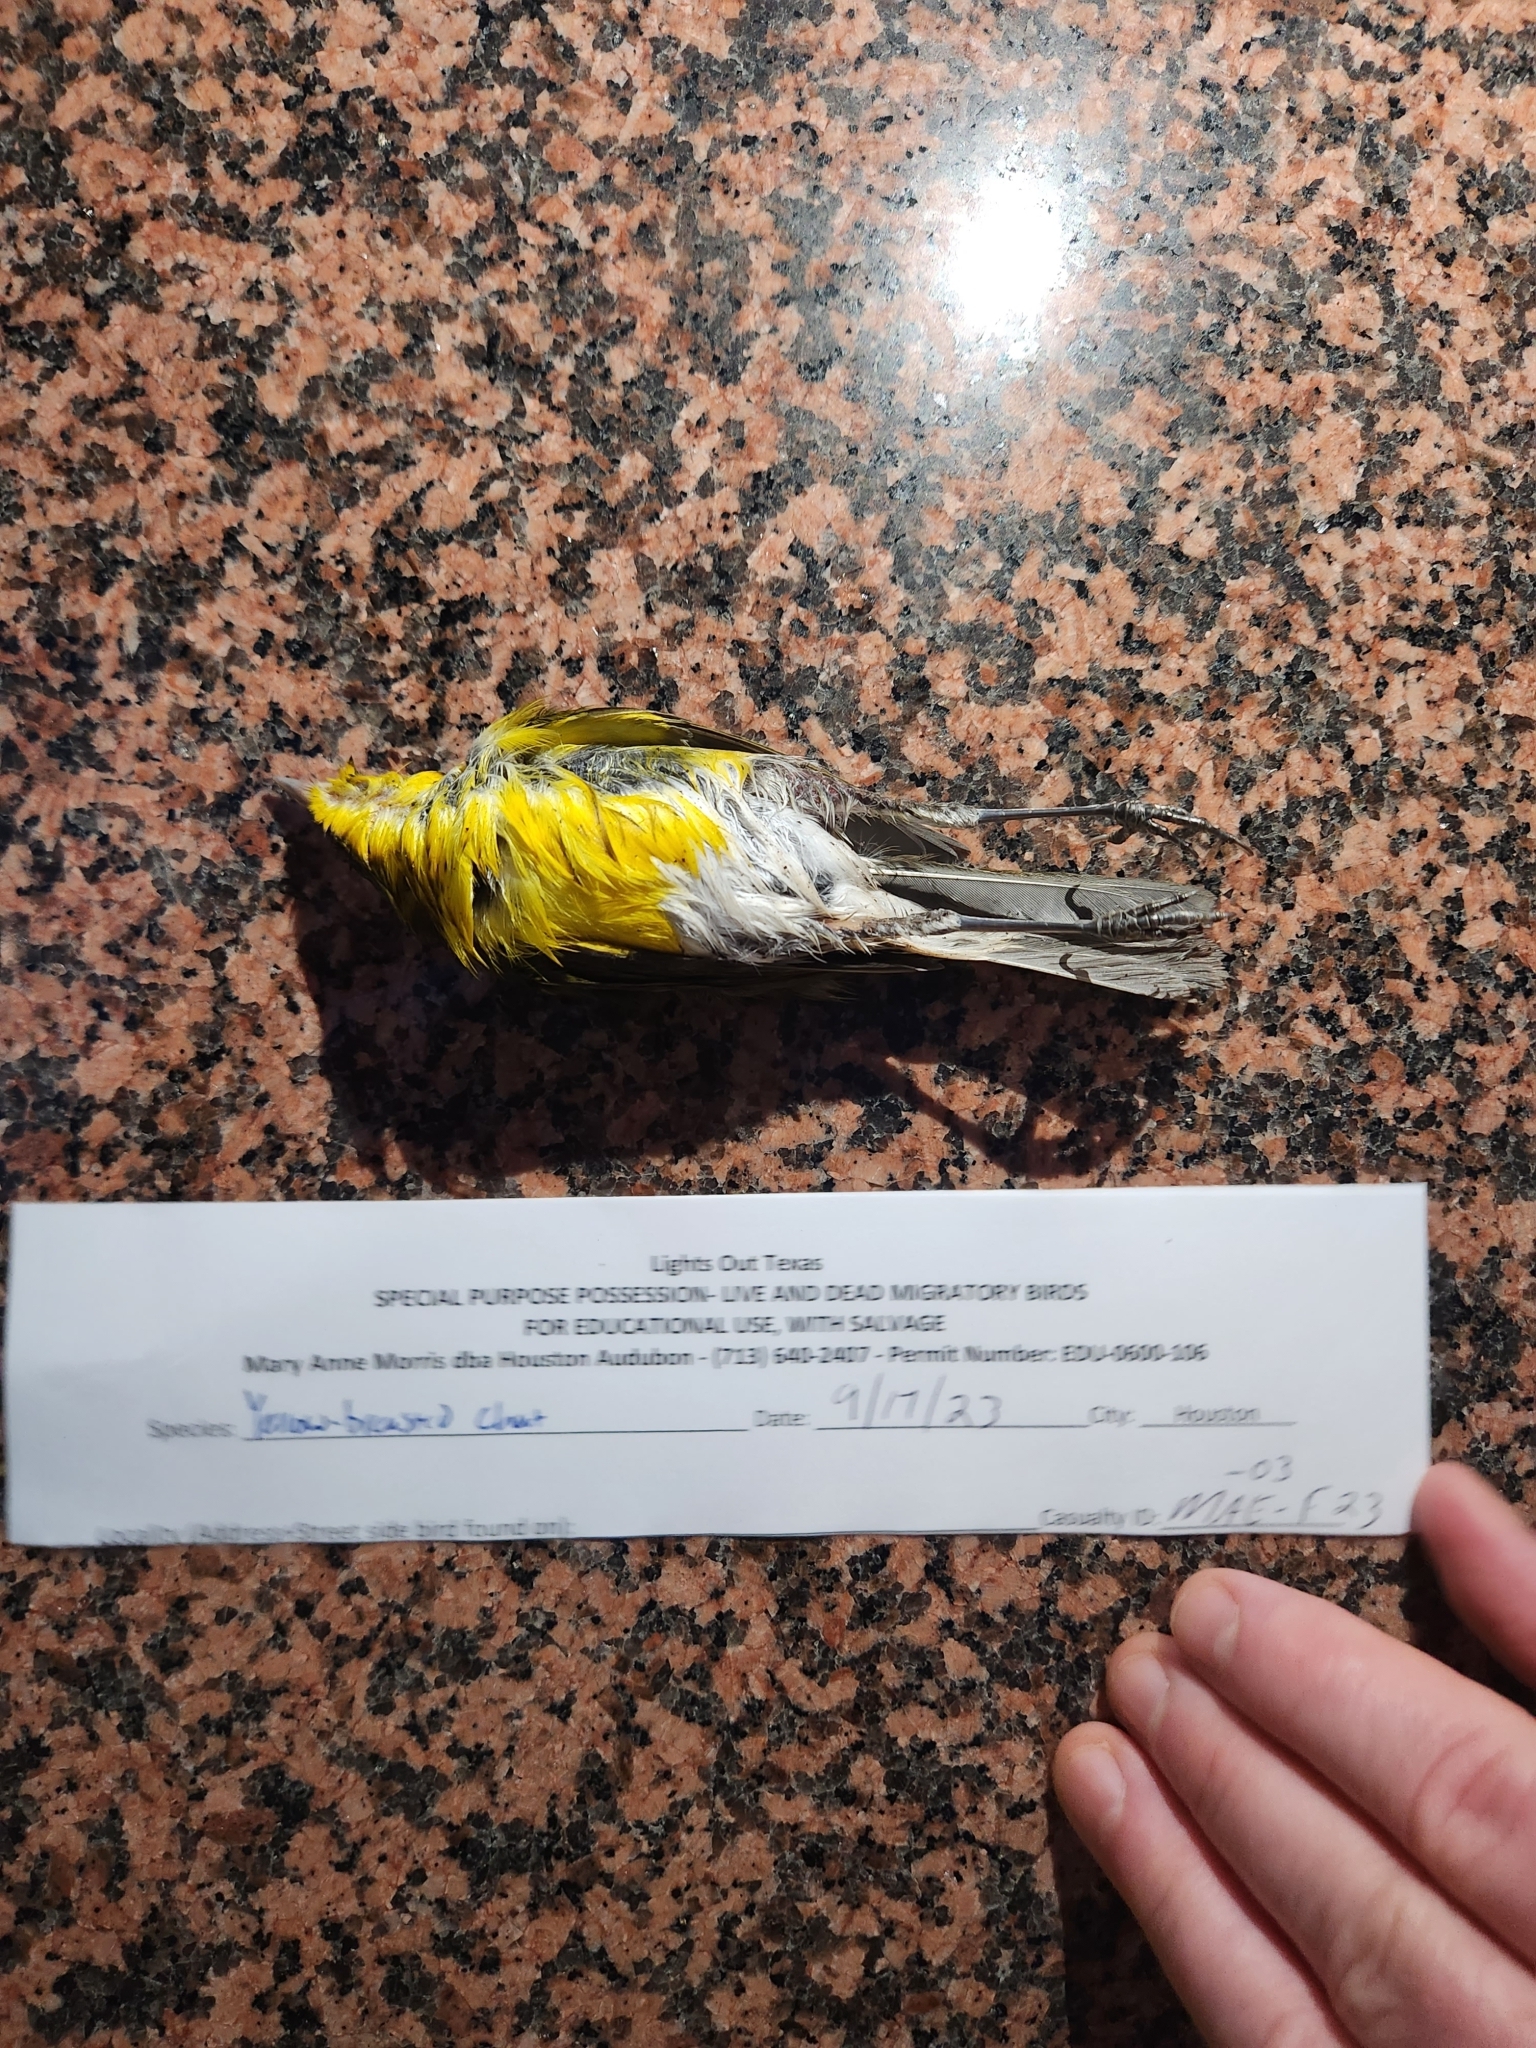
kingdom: Animalia
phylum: Chordata
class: Aves
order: Passeriformes
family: Parulidae
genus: Icteria
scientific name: Icteria virens
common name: Yellow-breasted chat
